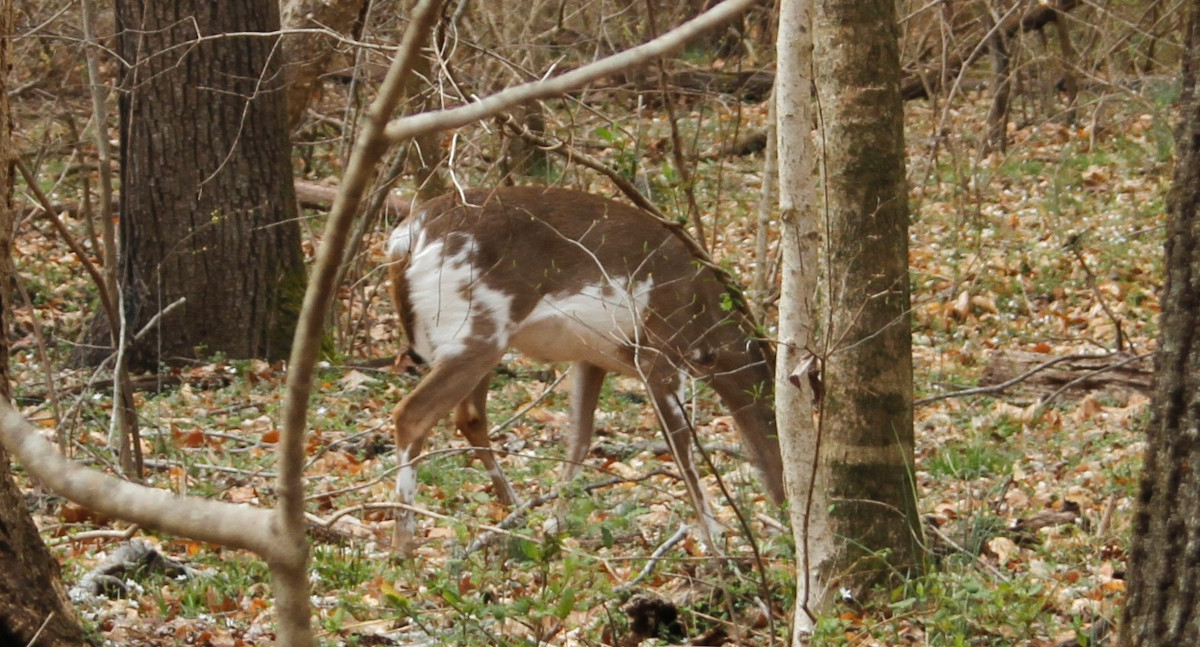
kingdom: Animalia
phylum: Chordata
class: Mammalia
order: Artiodactyla
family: Cervidae
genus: Odocoileus
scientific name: Odocoileus virginianus
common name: White-tailed deer
